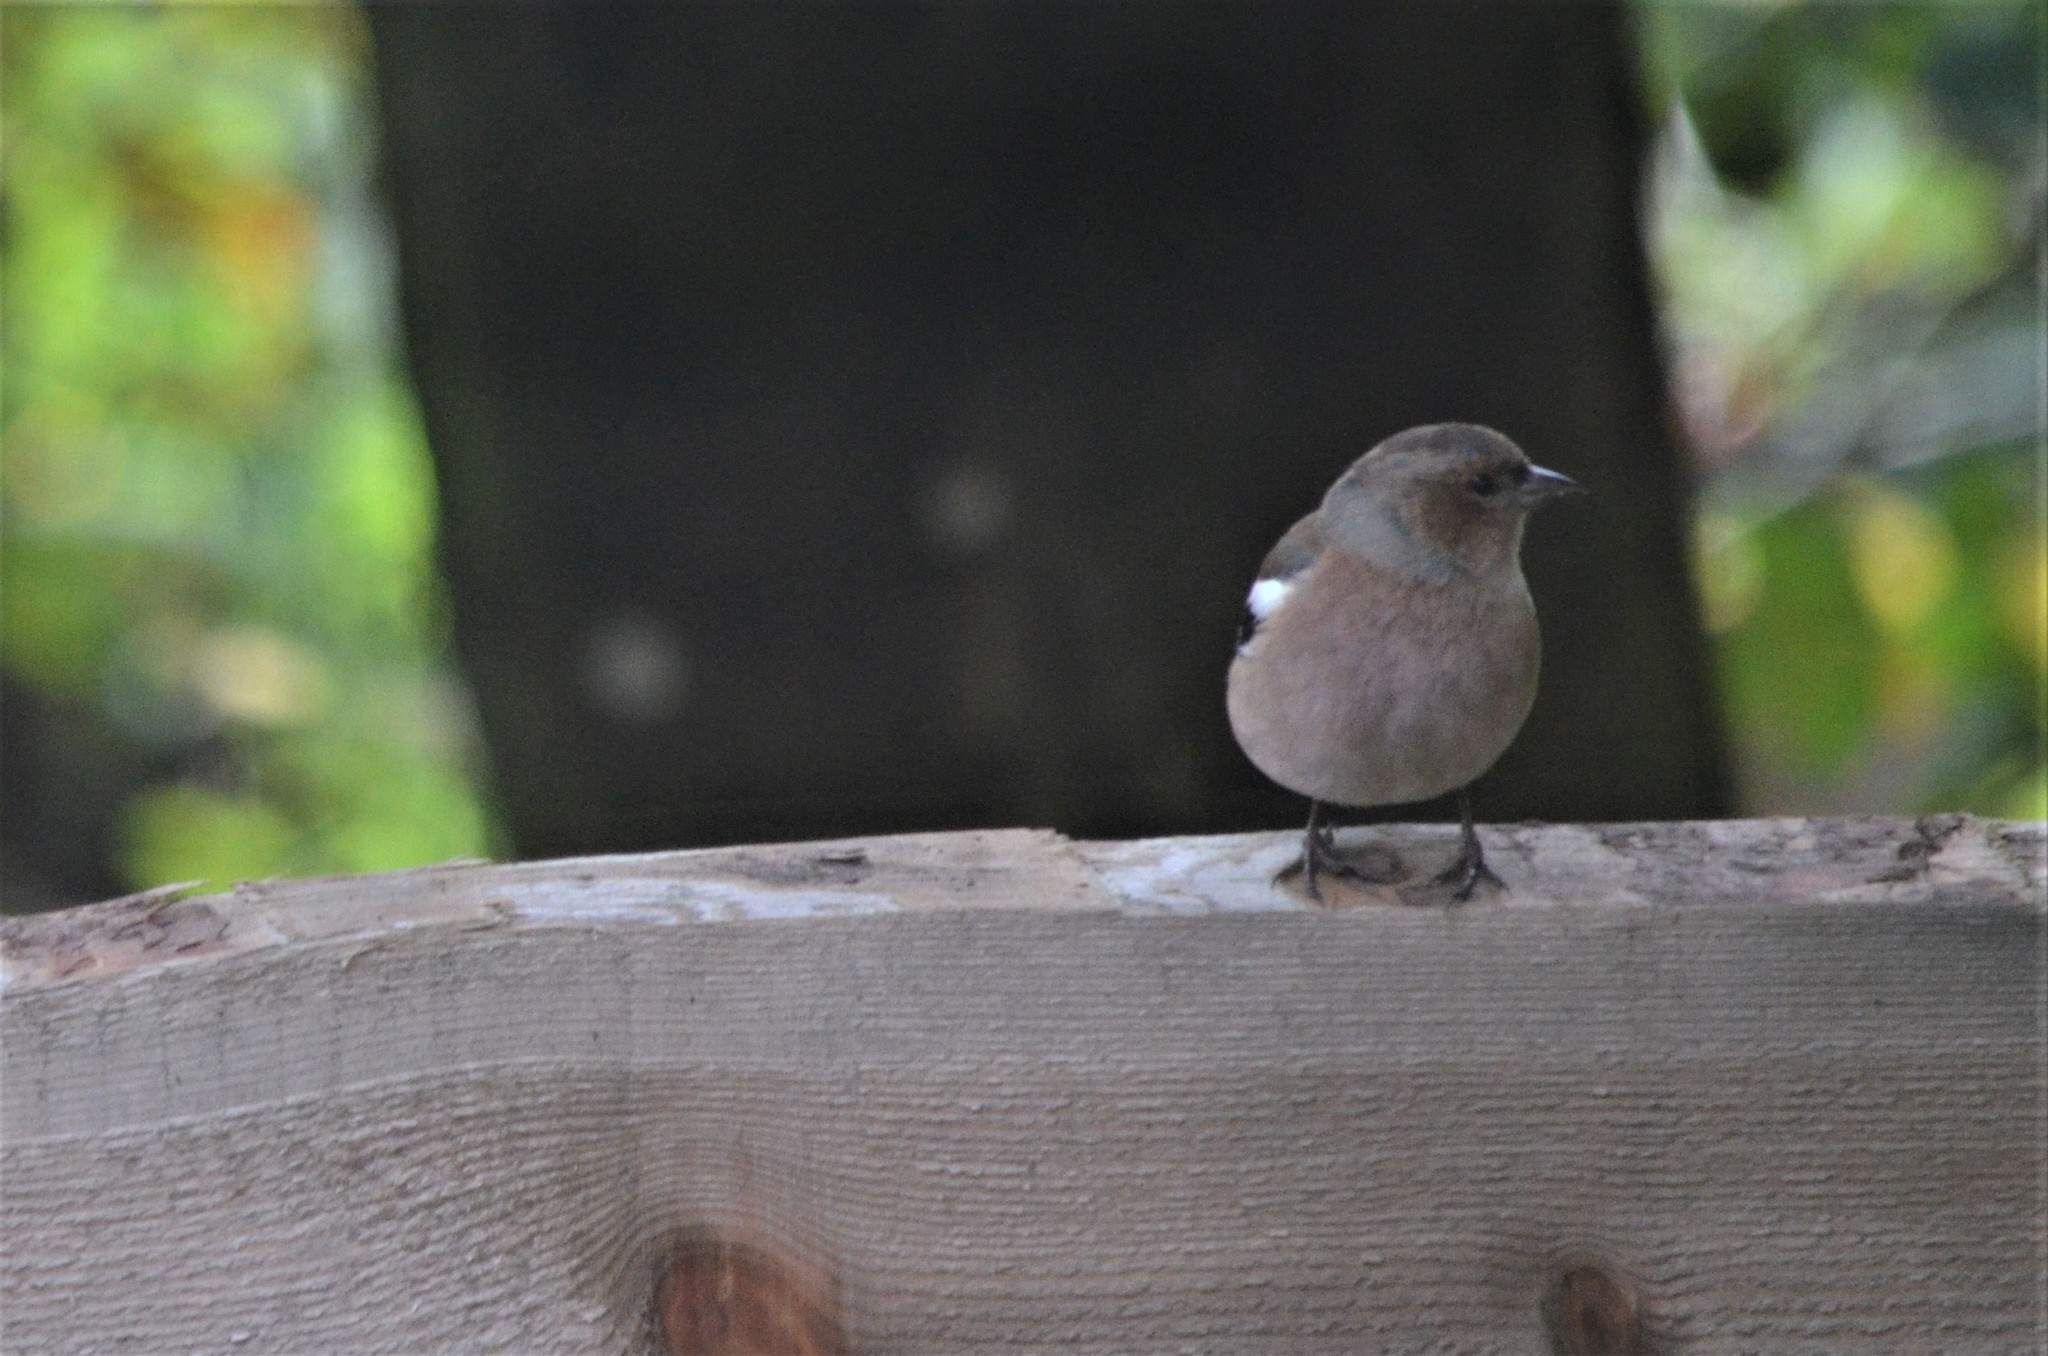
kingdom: Animalia
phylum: Chordata
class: Aves
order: Passeriformes
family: Fringillidae
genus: Fringilla
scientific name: Fringilla coelebs
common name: Common chaffinch
